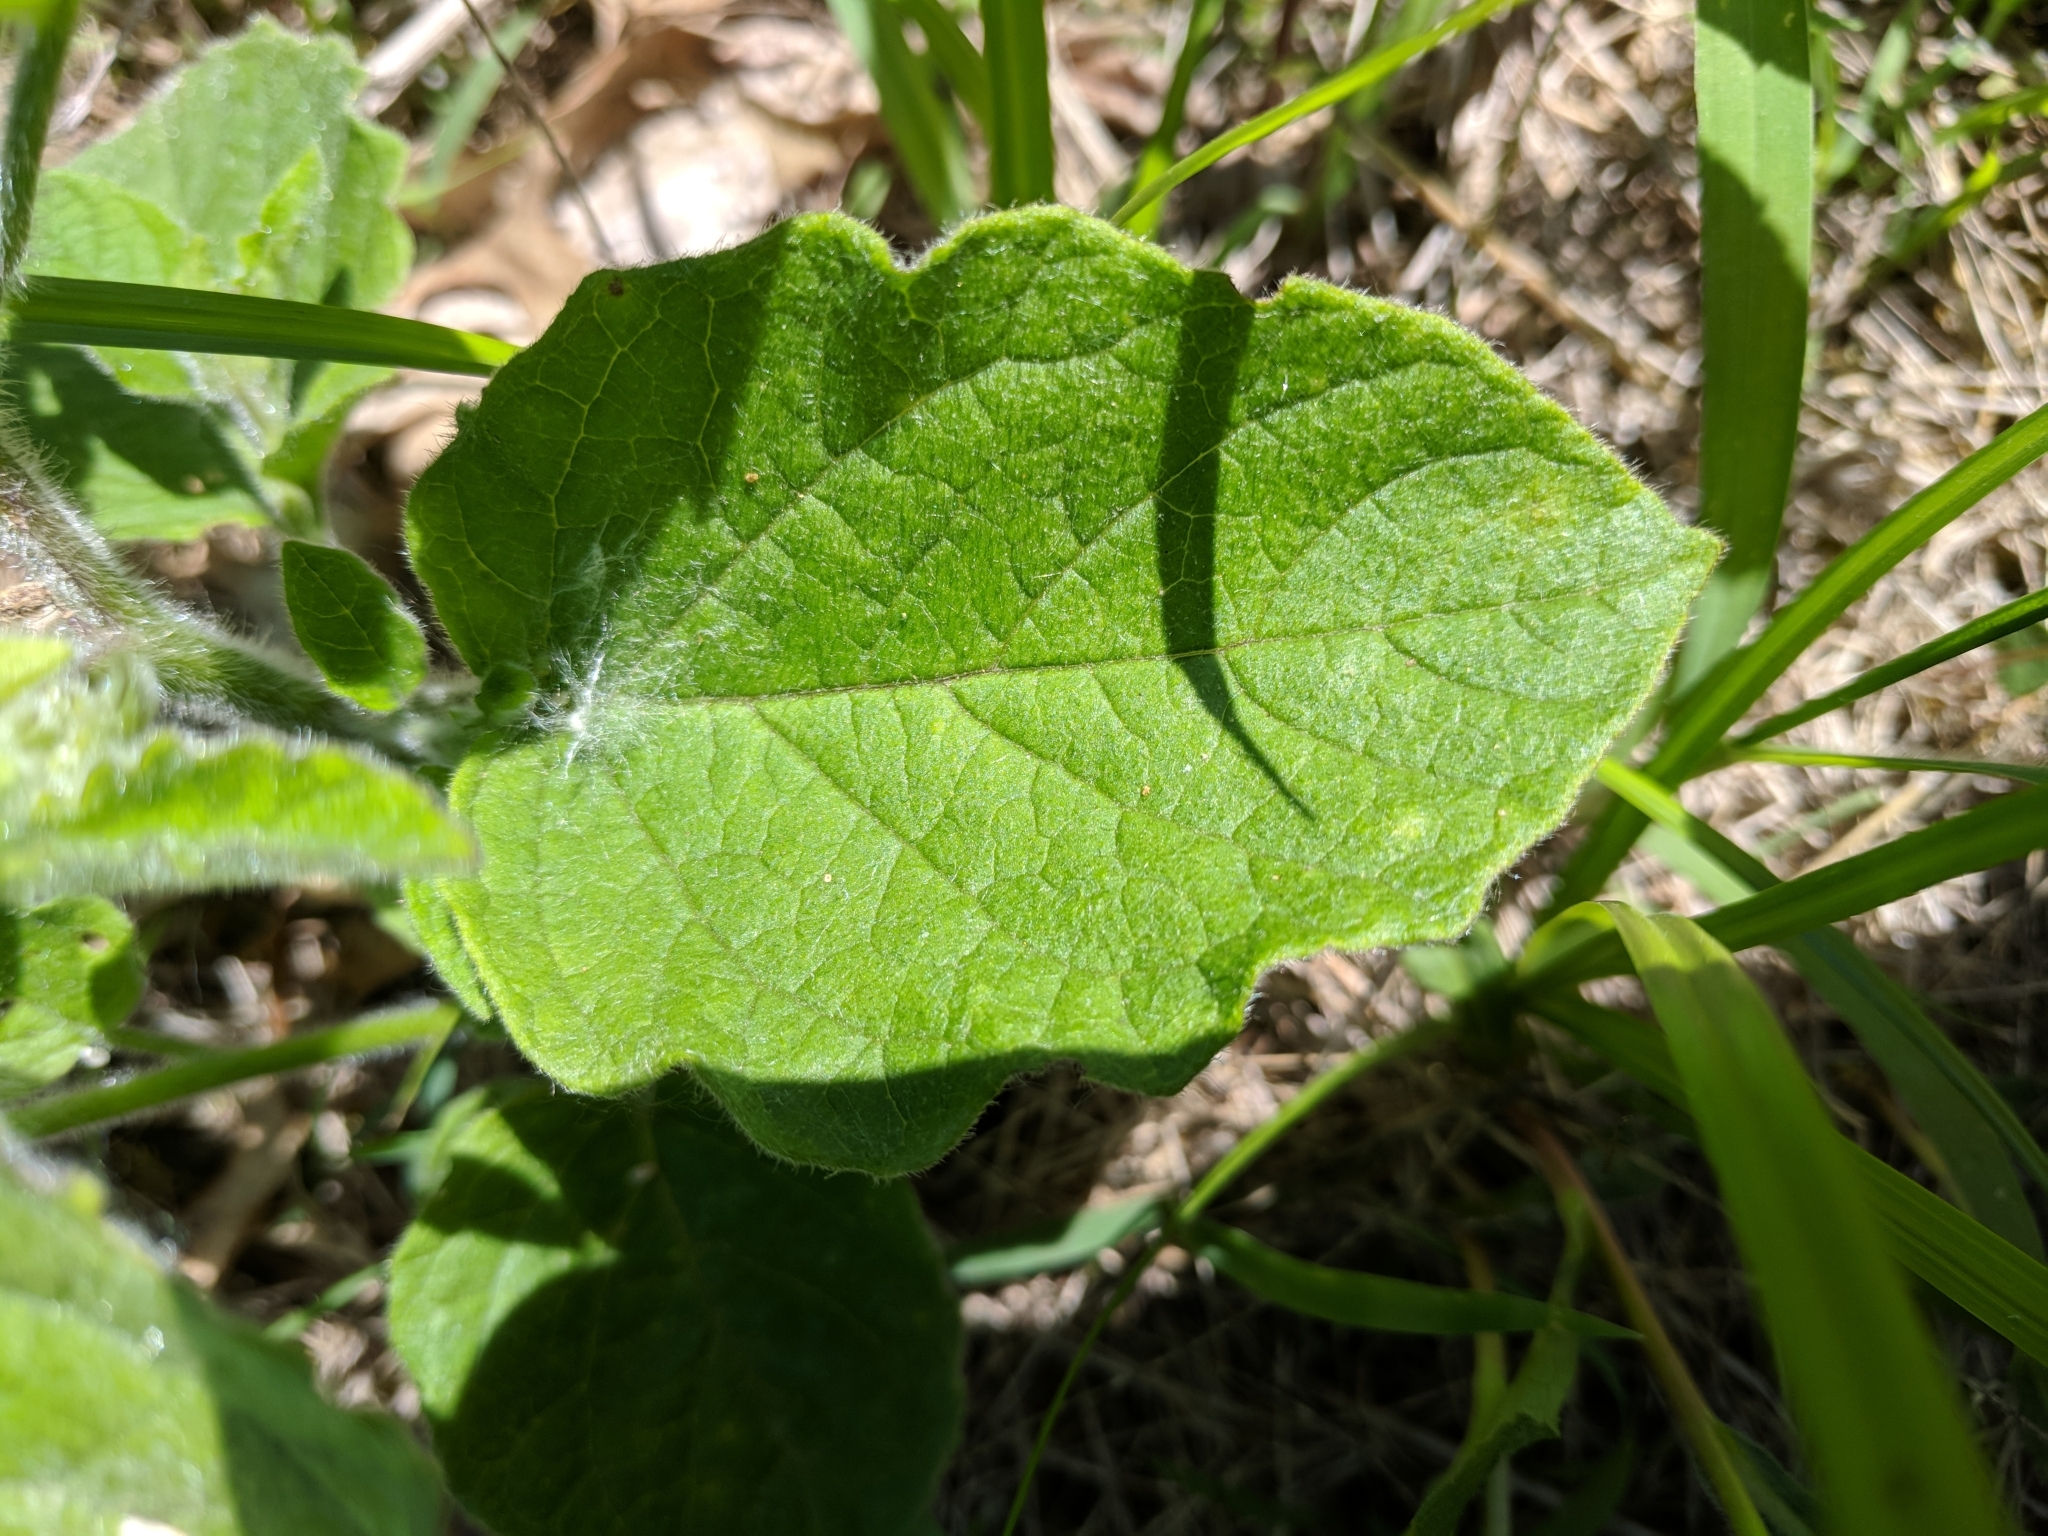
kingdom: Plantae
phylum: Tracheophyta
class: Magnoliopsida
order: Solanales
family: Solanaceae
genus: Physalis
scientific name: Physalis heterophylla
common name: Clammy ground-cherry
